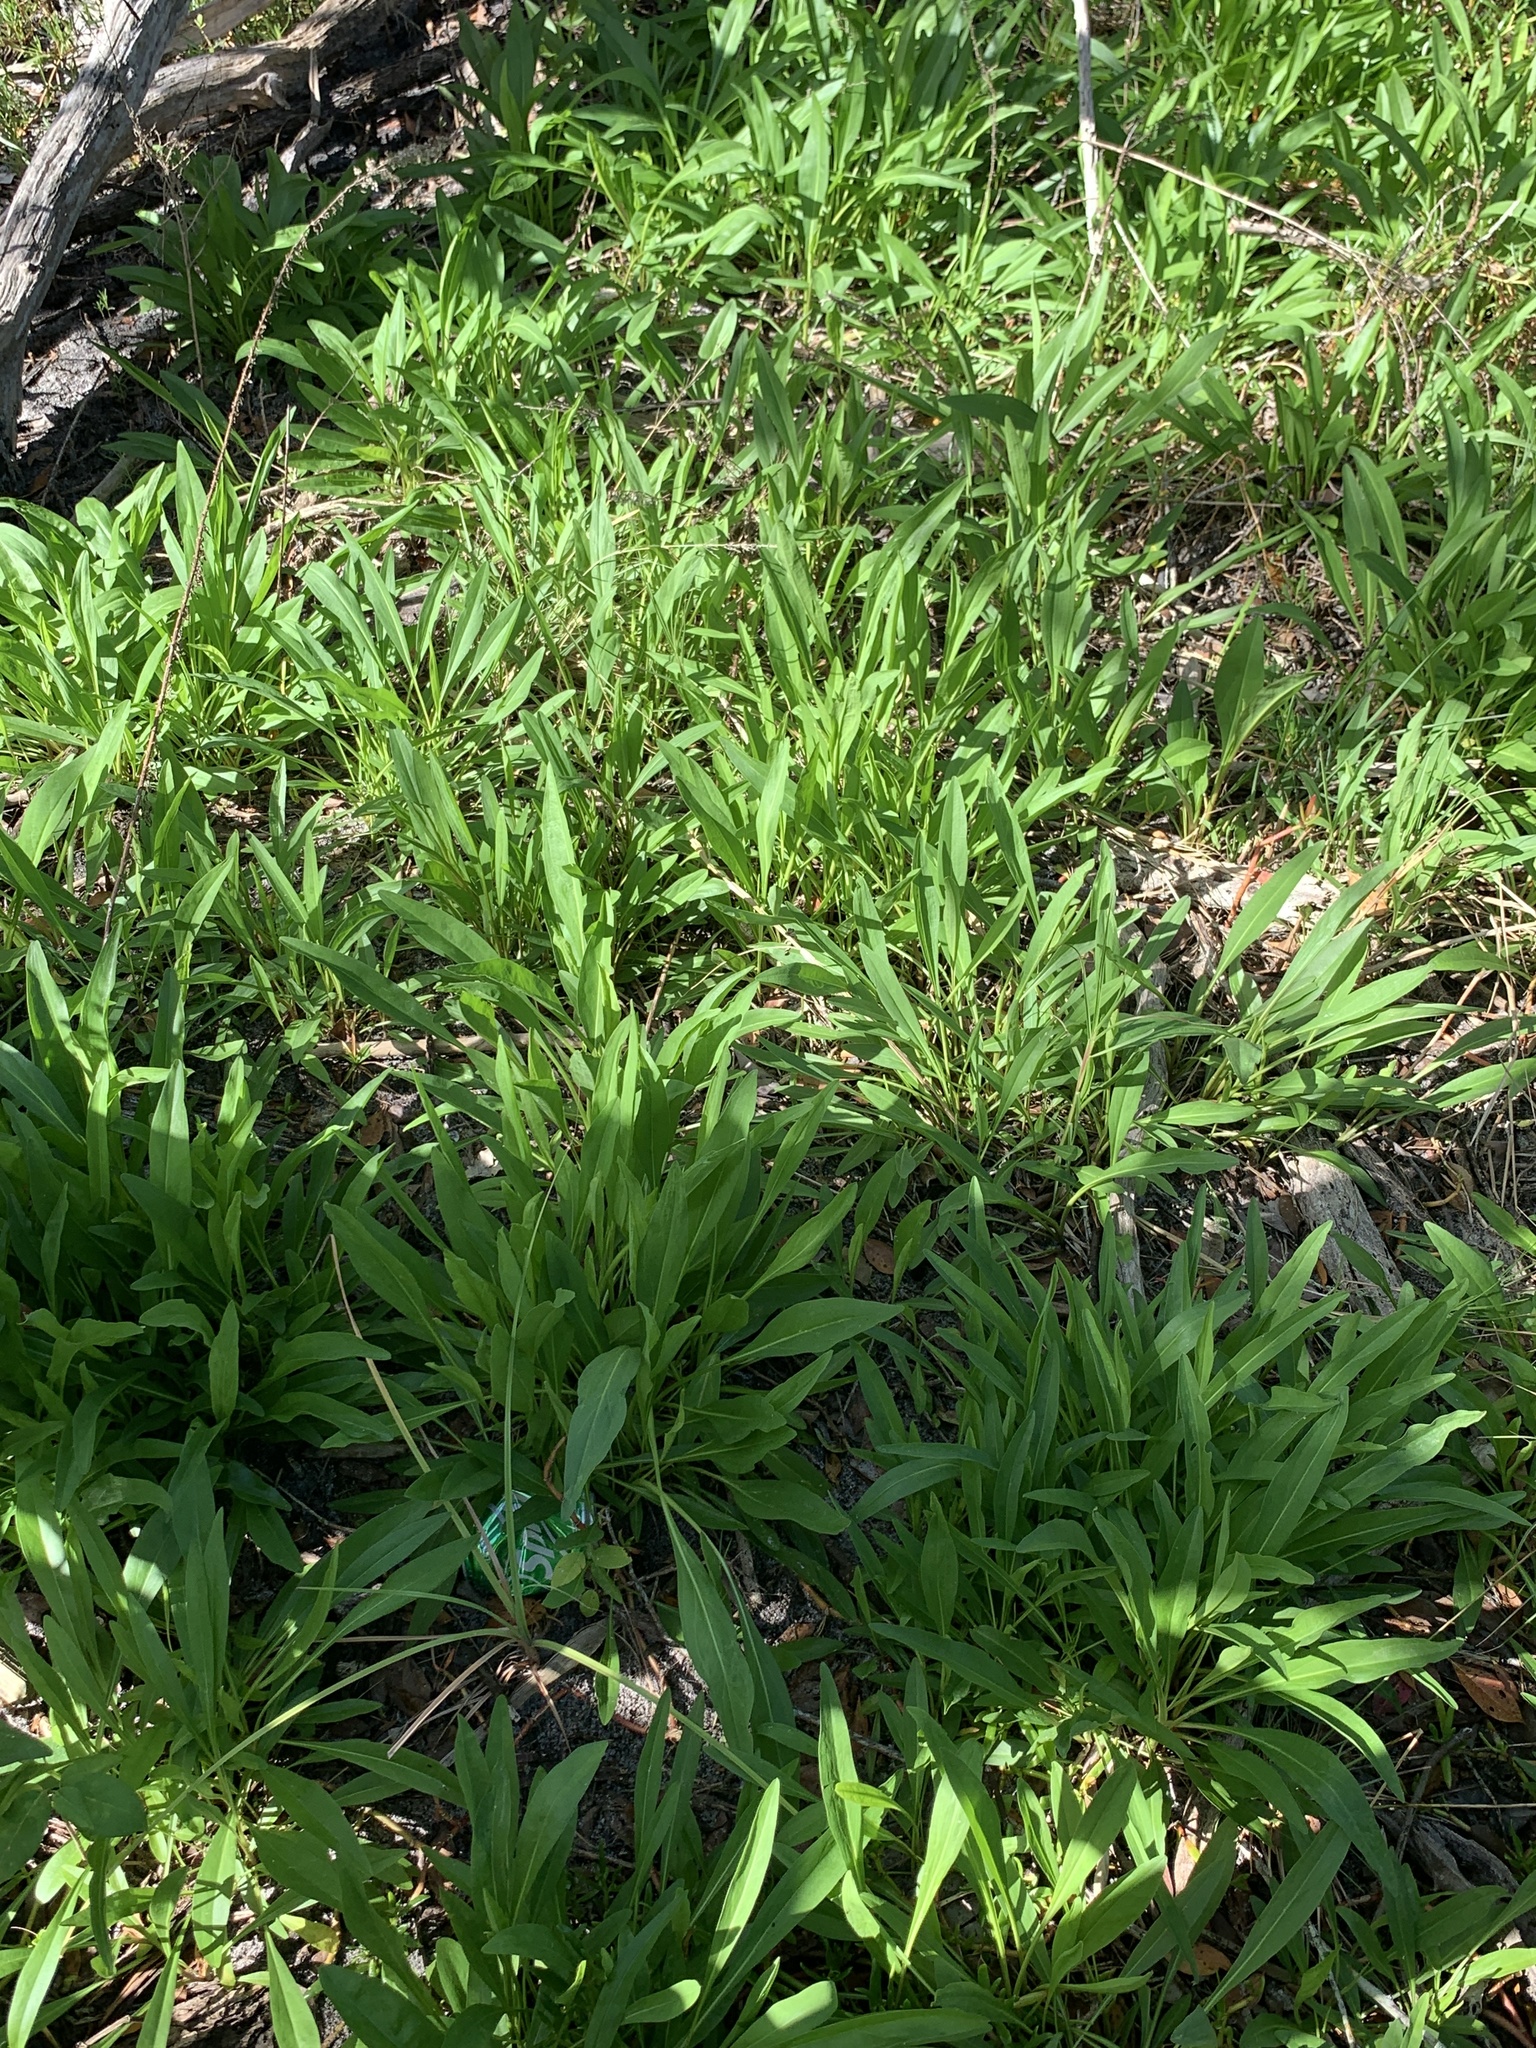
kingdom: Plantae
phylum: Tracheophyta
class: Magnoliopsida
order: Asterales
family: Asteraceae
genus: Solidago
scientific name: Solidago mexicana
